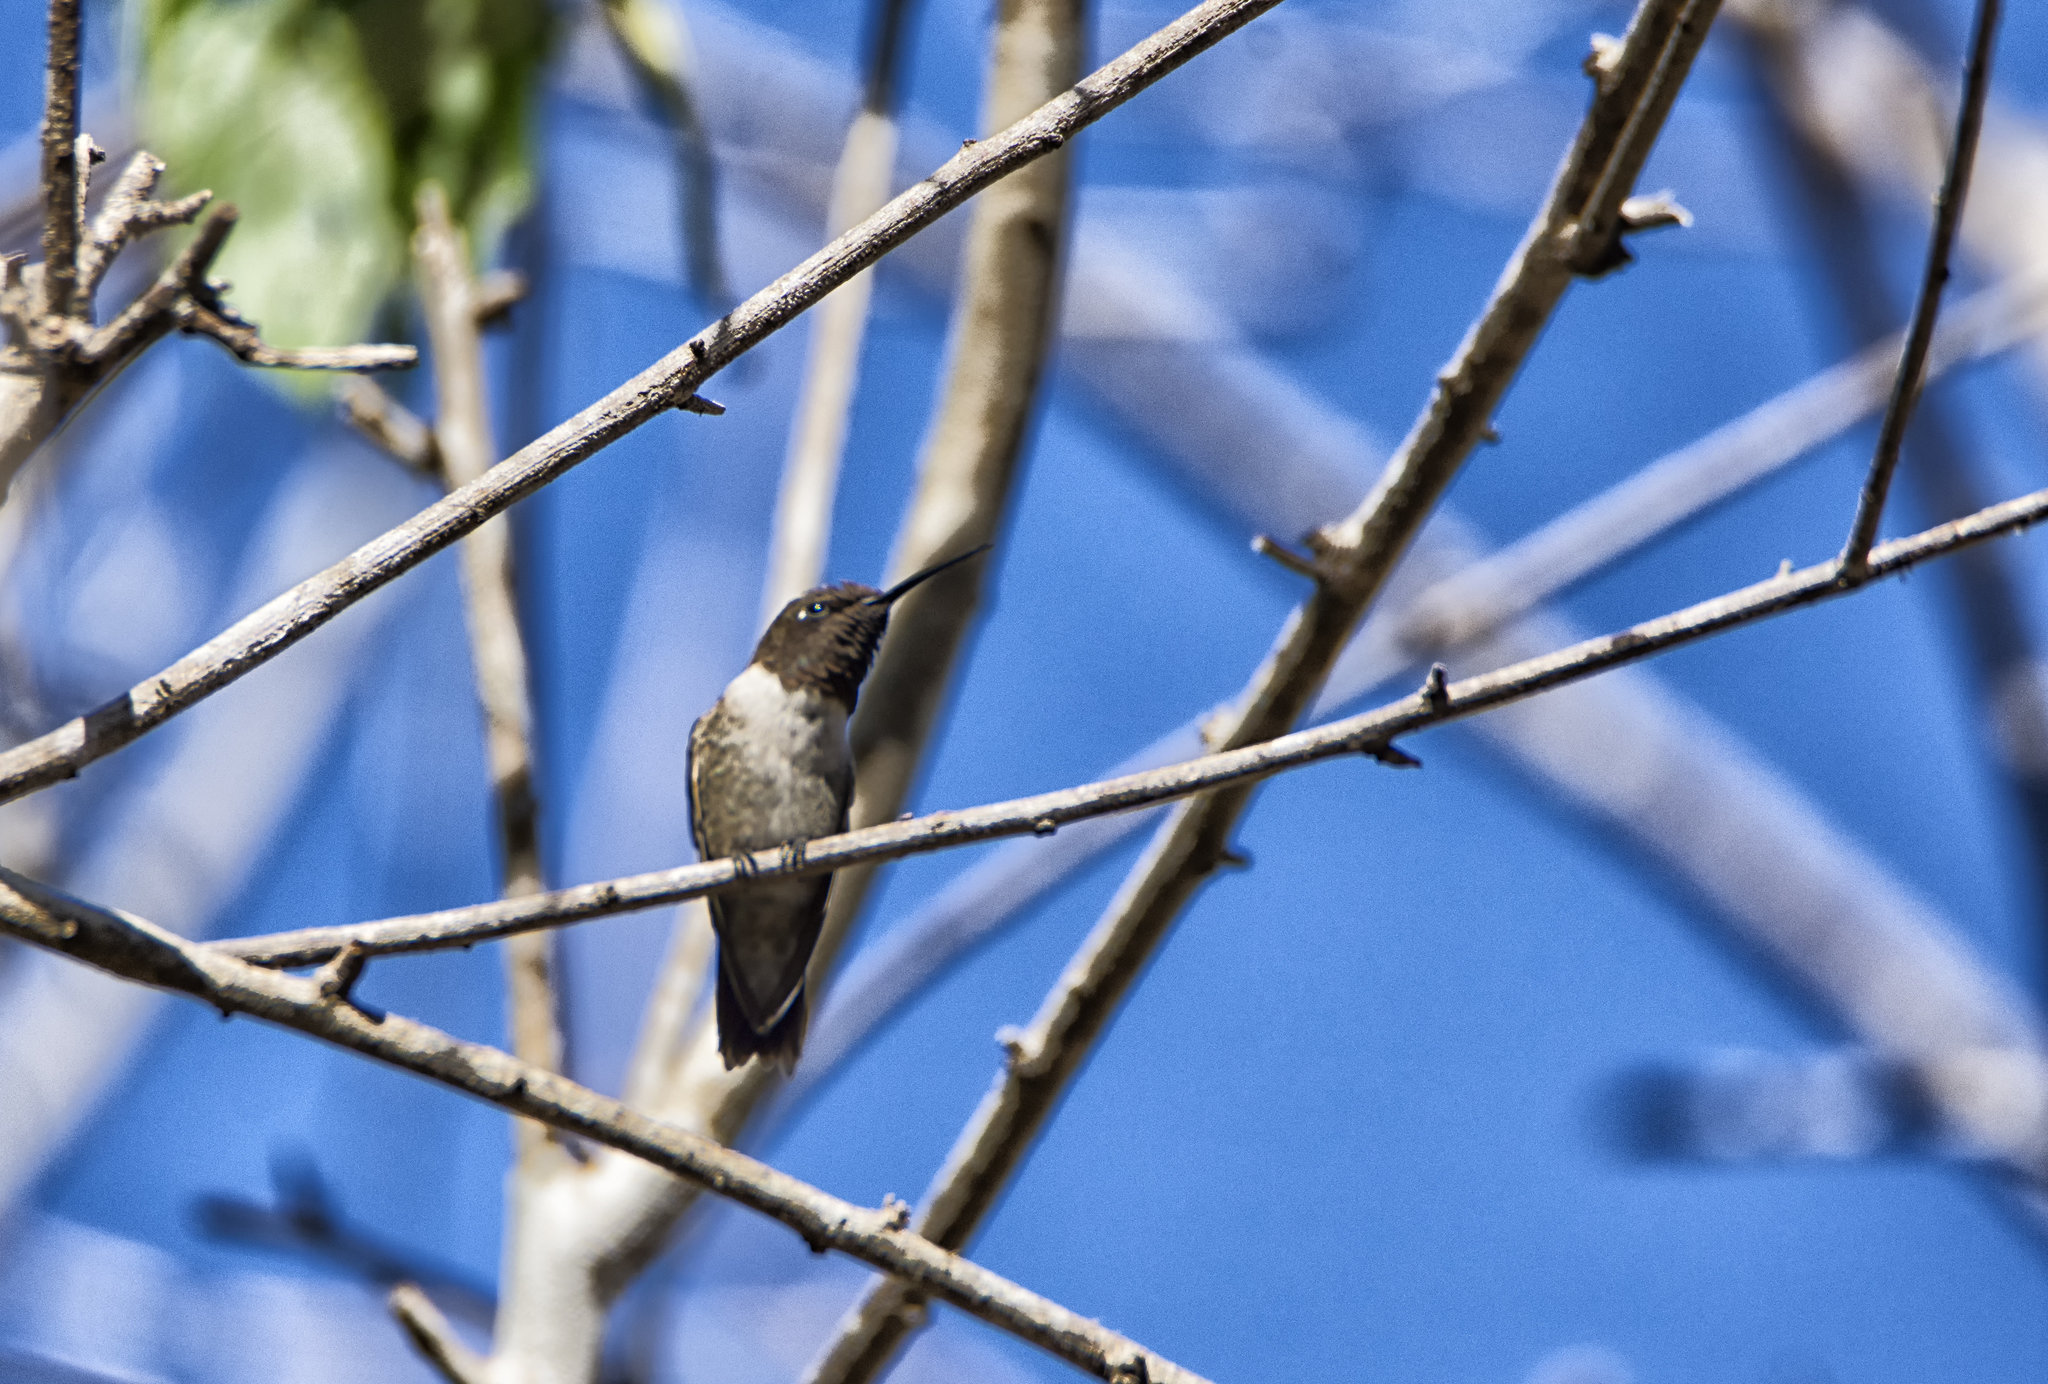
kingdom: Animalia
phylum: Chordata
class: Aves
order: Apodiformes
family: Trochilidae
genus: Archilochus
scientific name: Archilochus alexandri
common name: Black-chinned hummingbird
